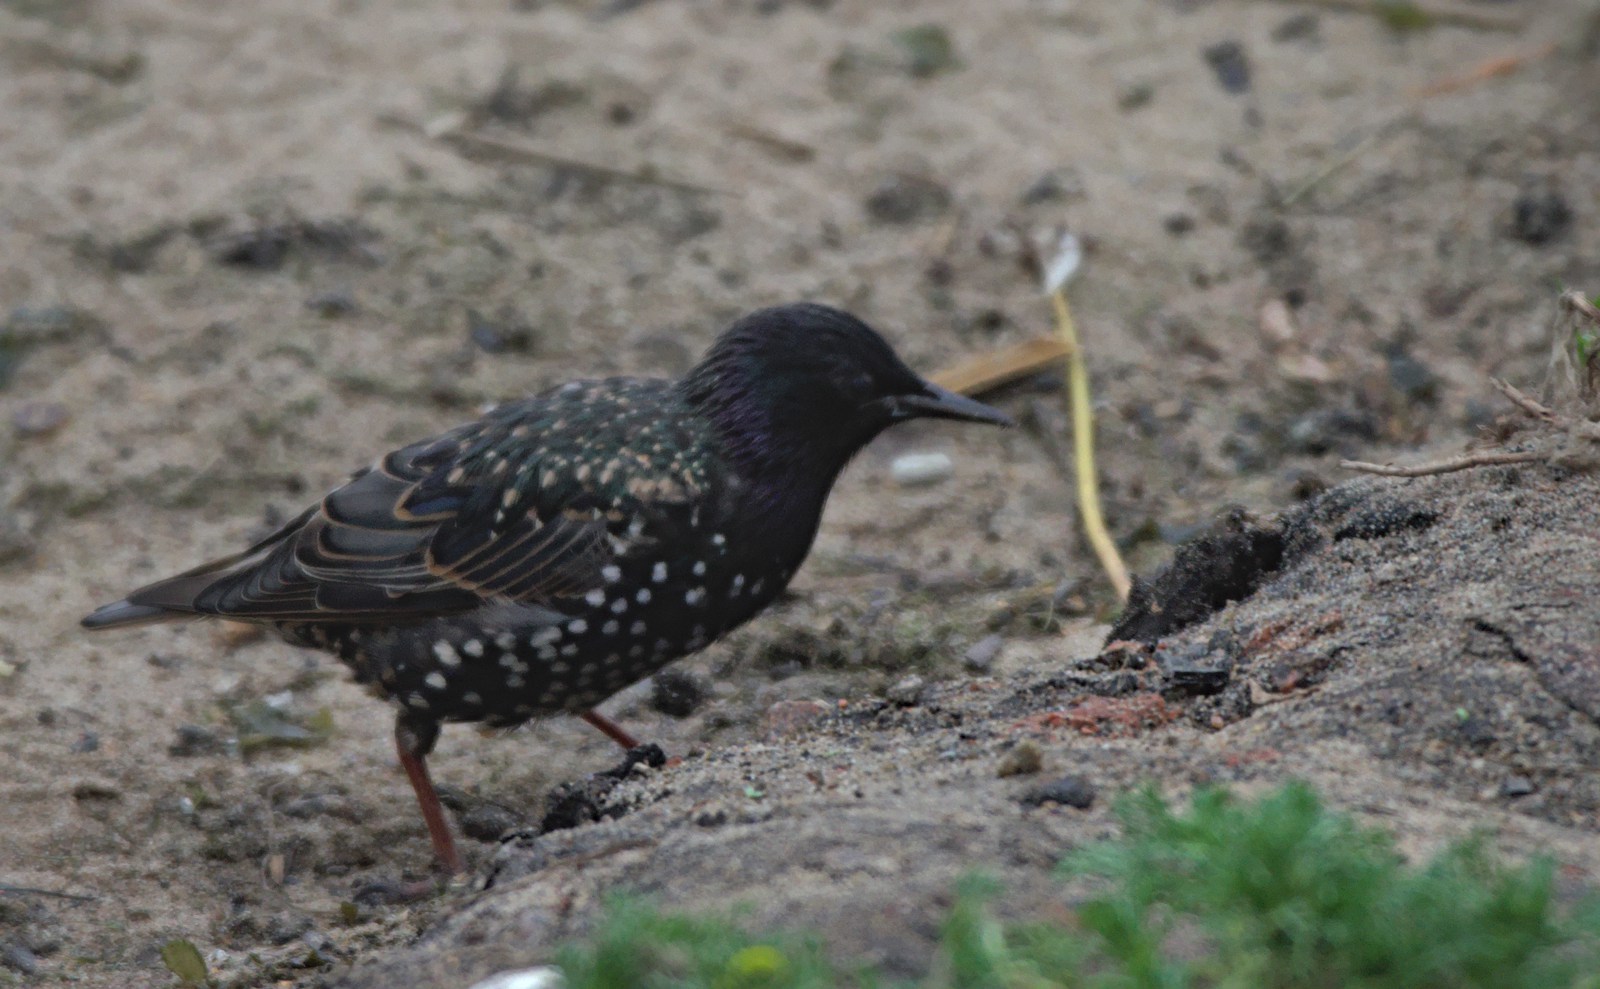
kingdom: Animalia
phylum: Chordata
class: Aves
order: Passeriformes
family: Sturnidae
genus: Sturnus
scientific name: Sturnus vulgaris
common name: Common starling
